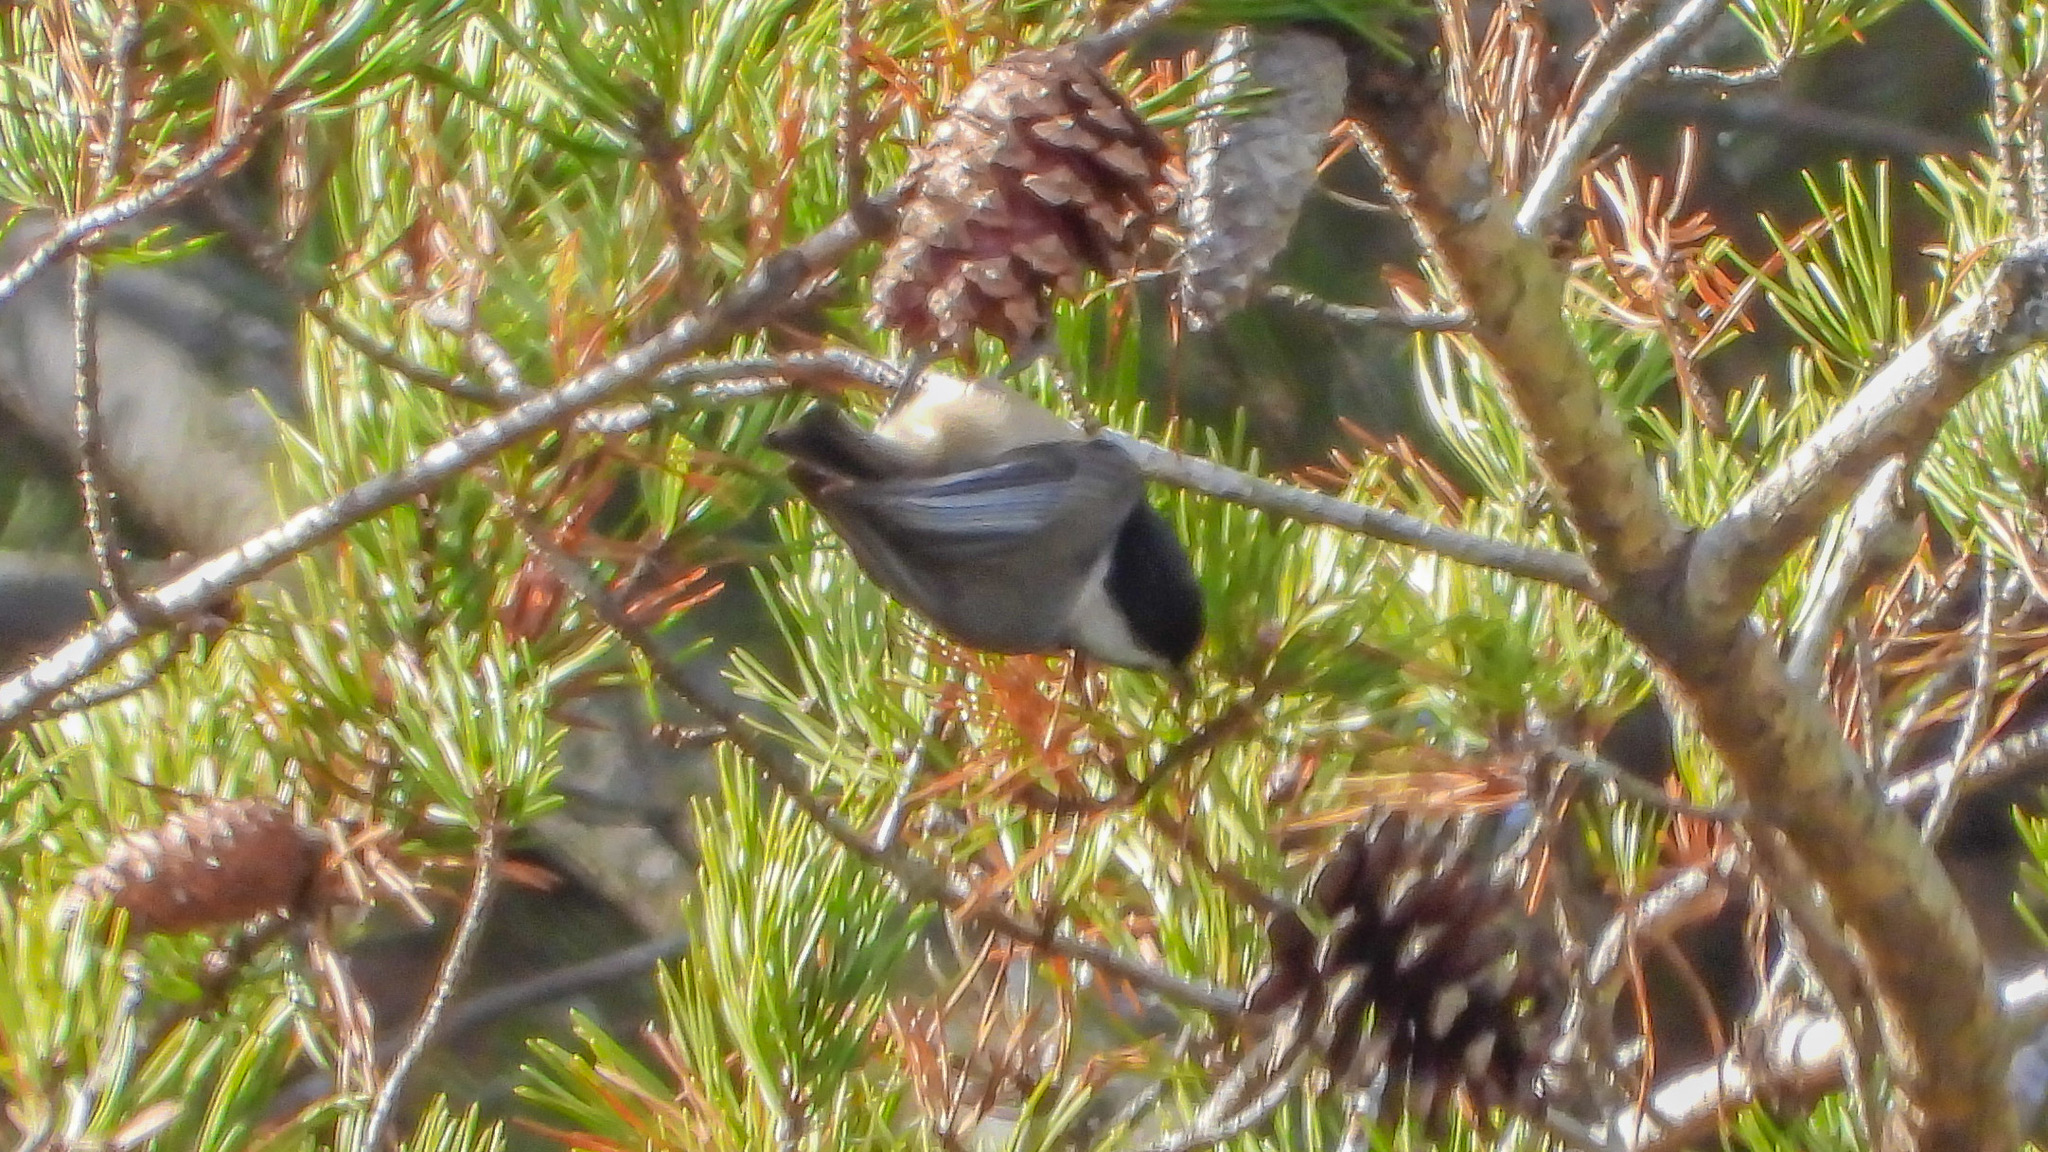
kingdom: Animalia
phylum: Chordata
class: Aves
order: Passeriformes
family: Paridae
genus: Poecile
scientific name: Poecile carolinensis
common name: Carolina chickadee
